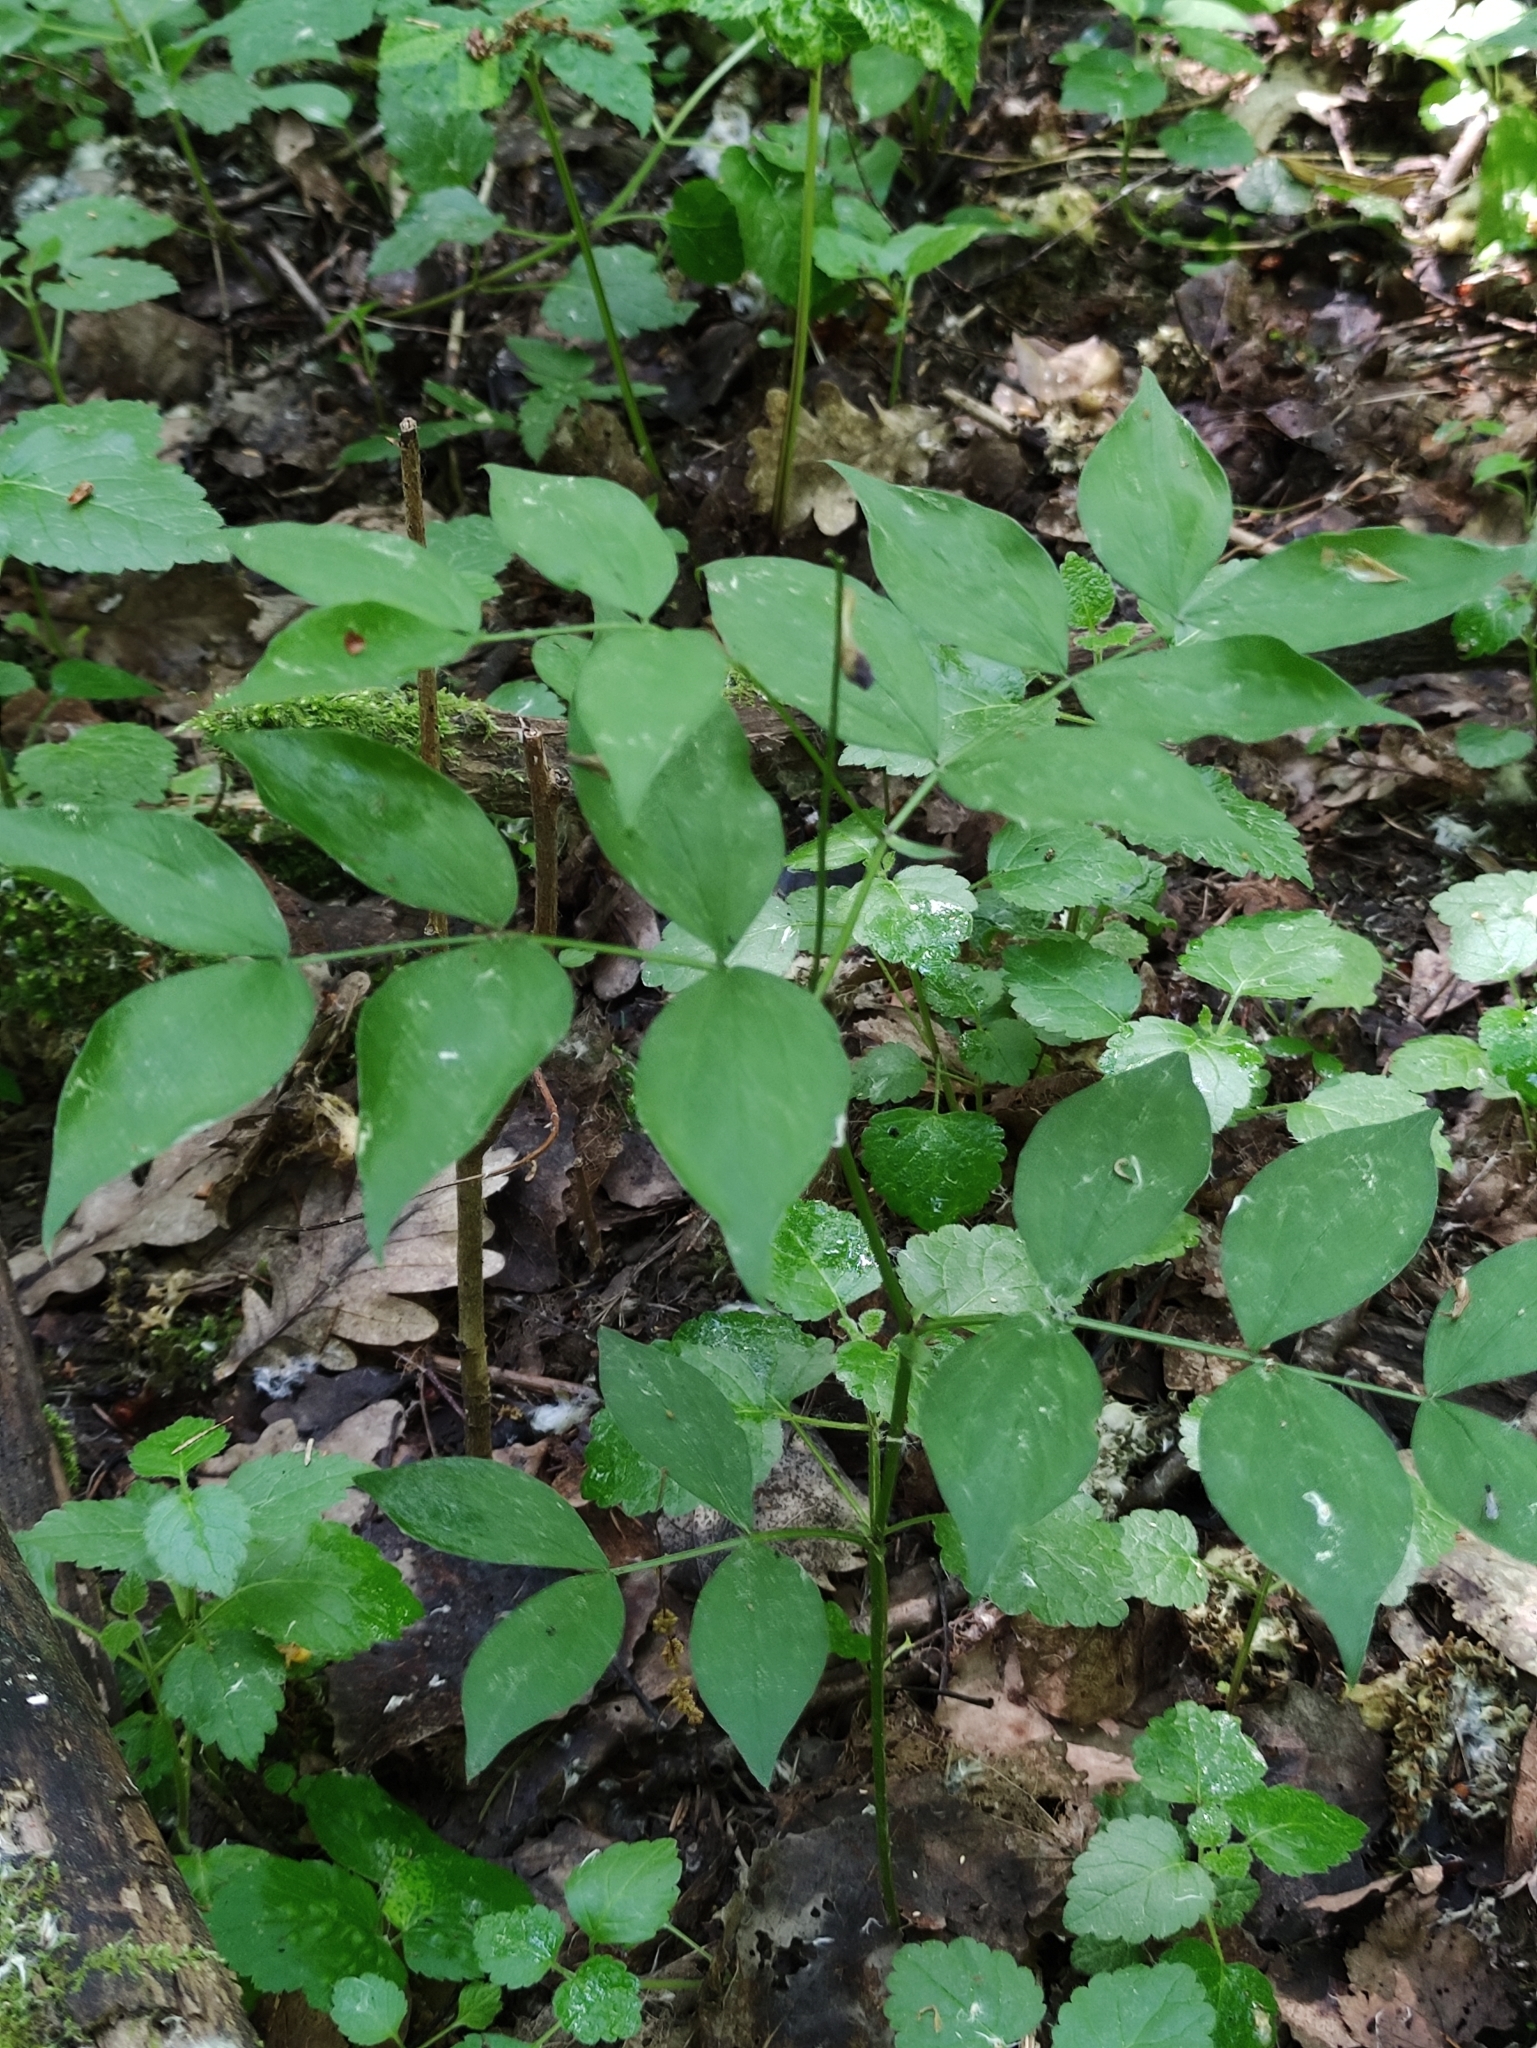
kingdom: Plantae
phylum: Tracheophyta
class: Magnoliopsida
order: Fabales
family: Fabaceae
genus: Lathyrus
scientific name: Lathyrus vernus
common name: Spring pea
